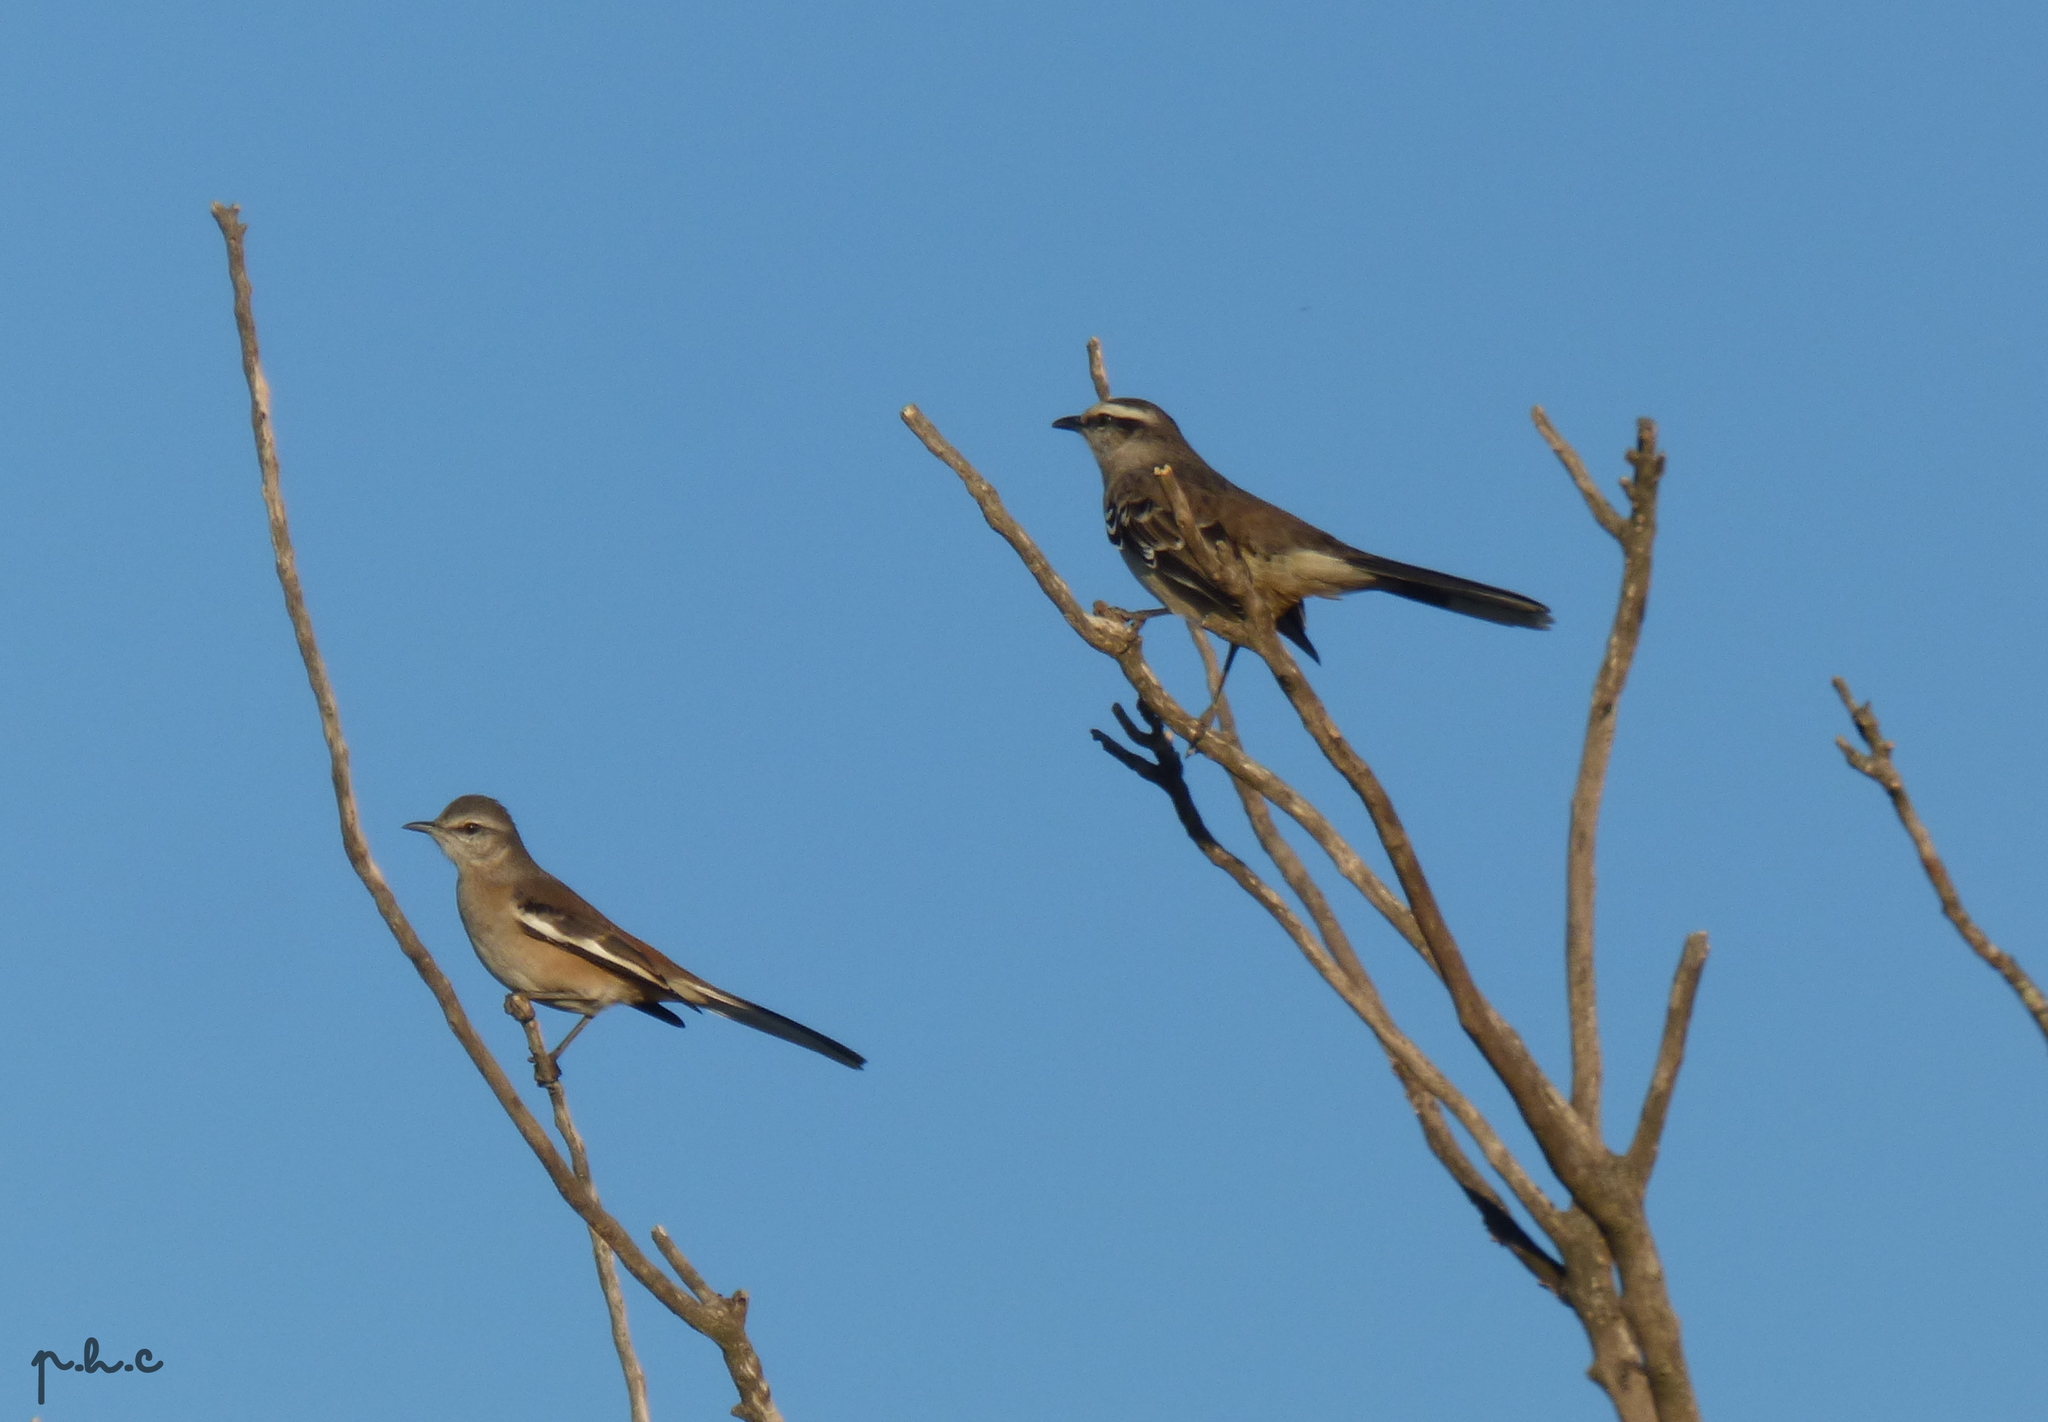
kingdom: Animalia
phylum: Chordata
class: Aves
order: Passeriformes
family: Mimidae
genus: Mimus
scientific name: Mimus triurus
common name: White-banded mockingbird
